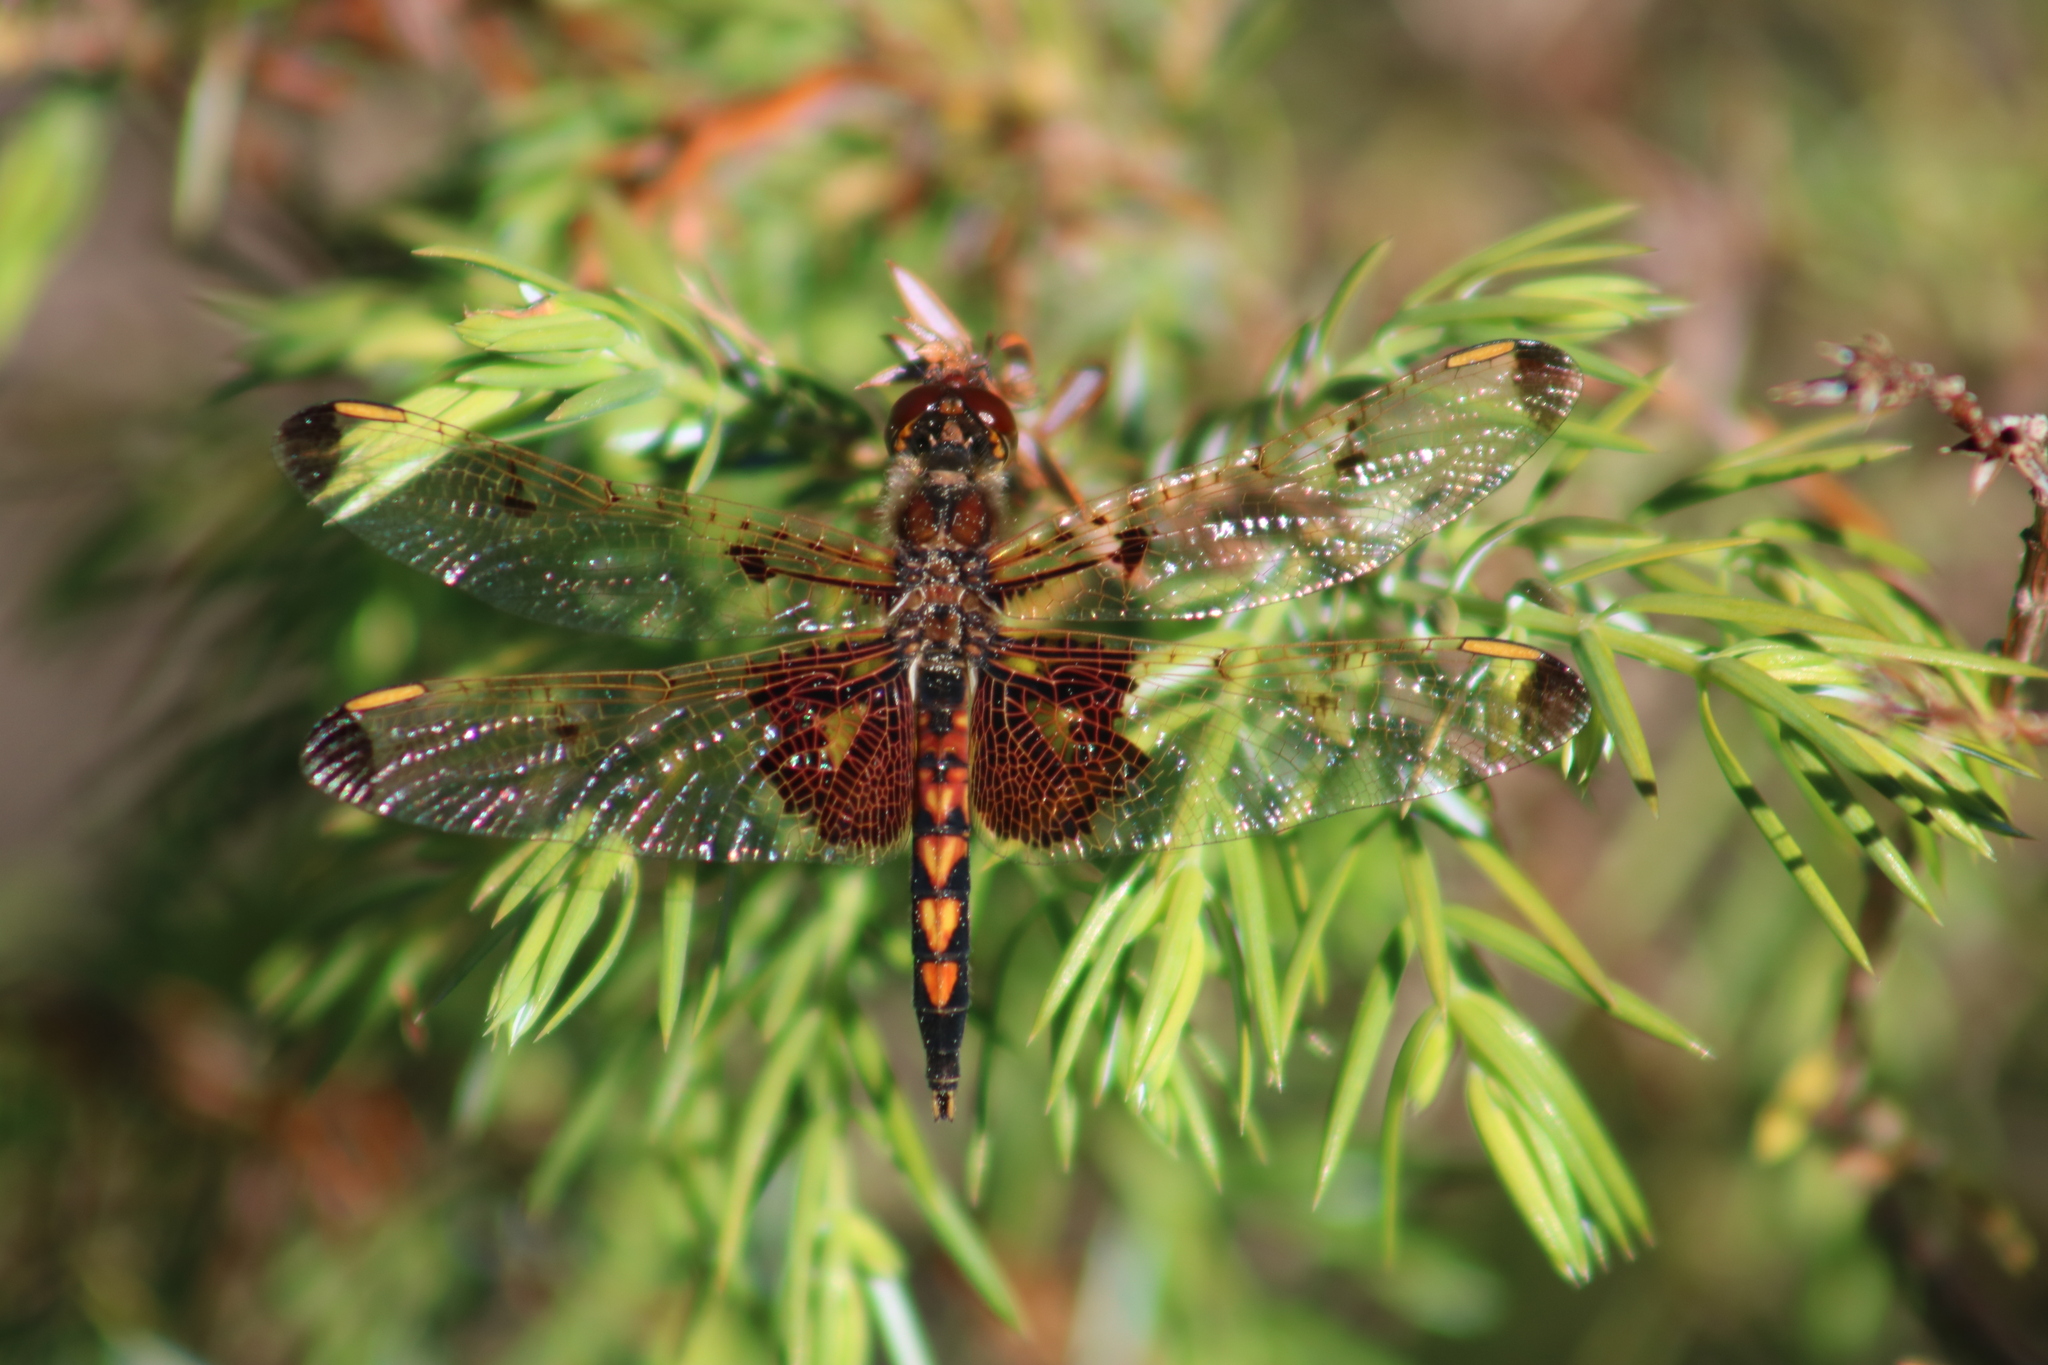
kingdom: Animalia
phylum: Arthropoda
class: Insecta
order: Odonata
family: Libellulidae
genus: Celithemis
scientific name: Celithemis elisa
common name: Calico pennant
